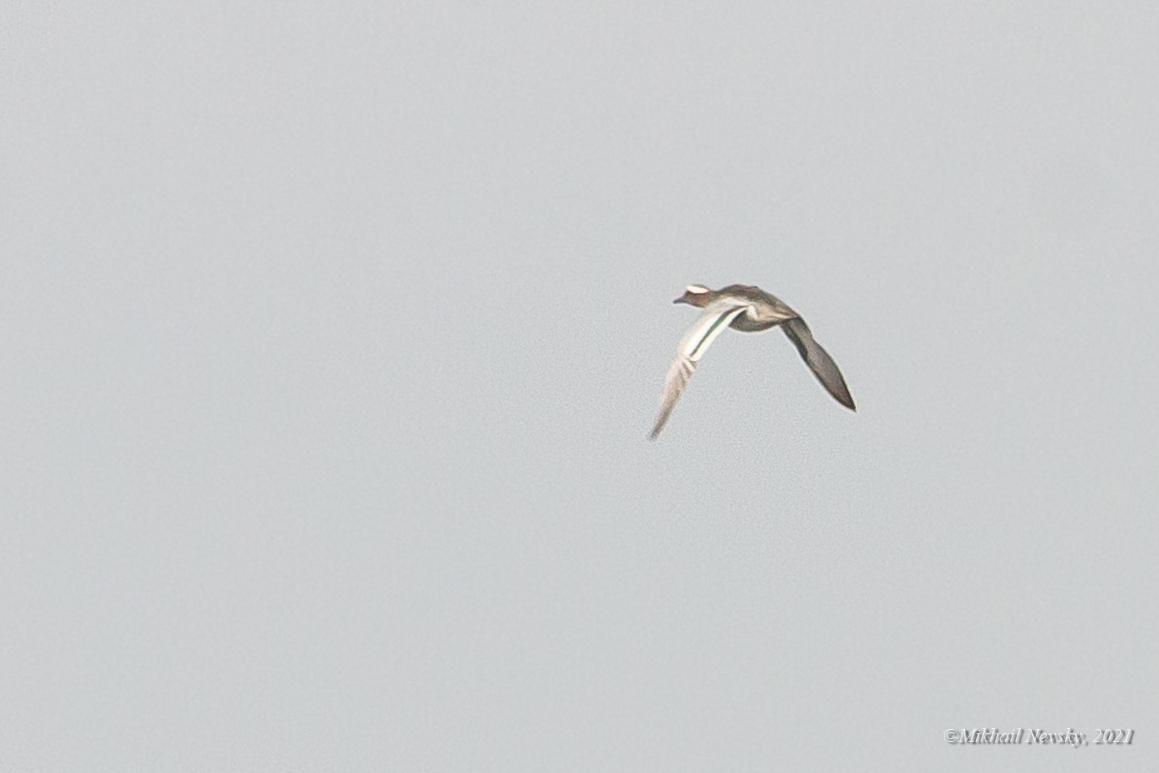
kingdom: Animalia
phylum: Chordata
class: Aves
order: Anseriformes
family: Anatidae
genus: Spatula
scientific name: Spatula querquedula
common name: Garganey
